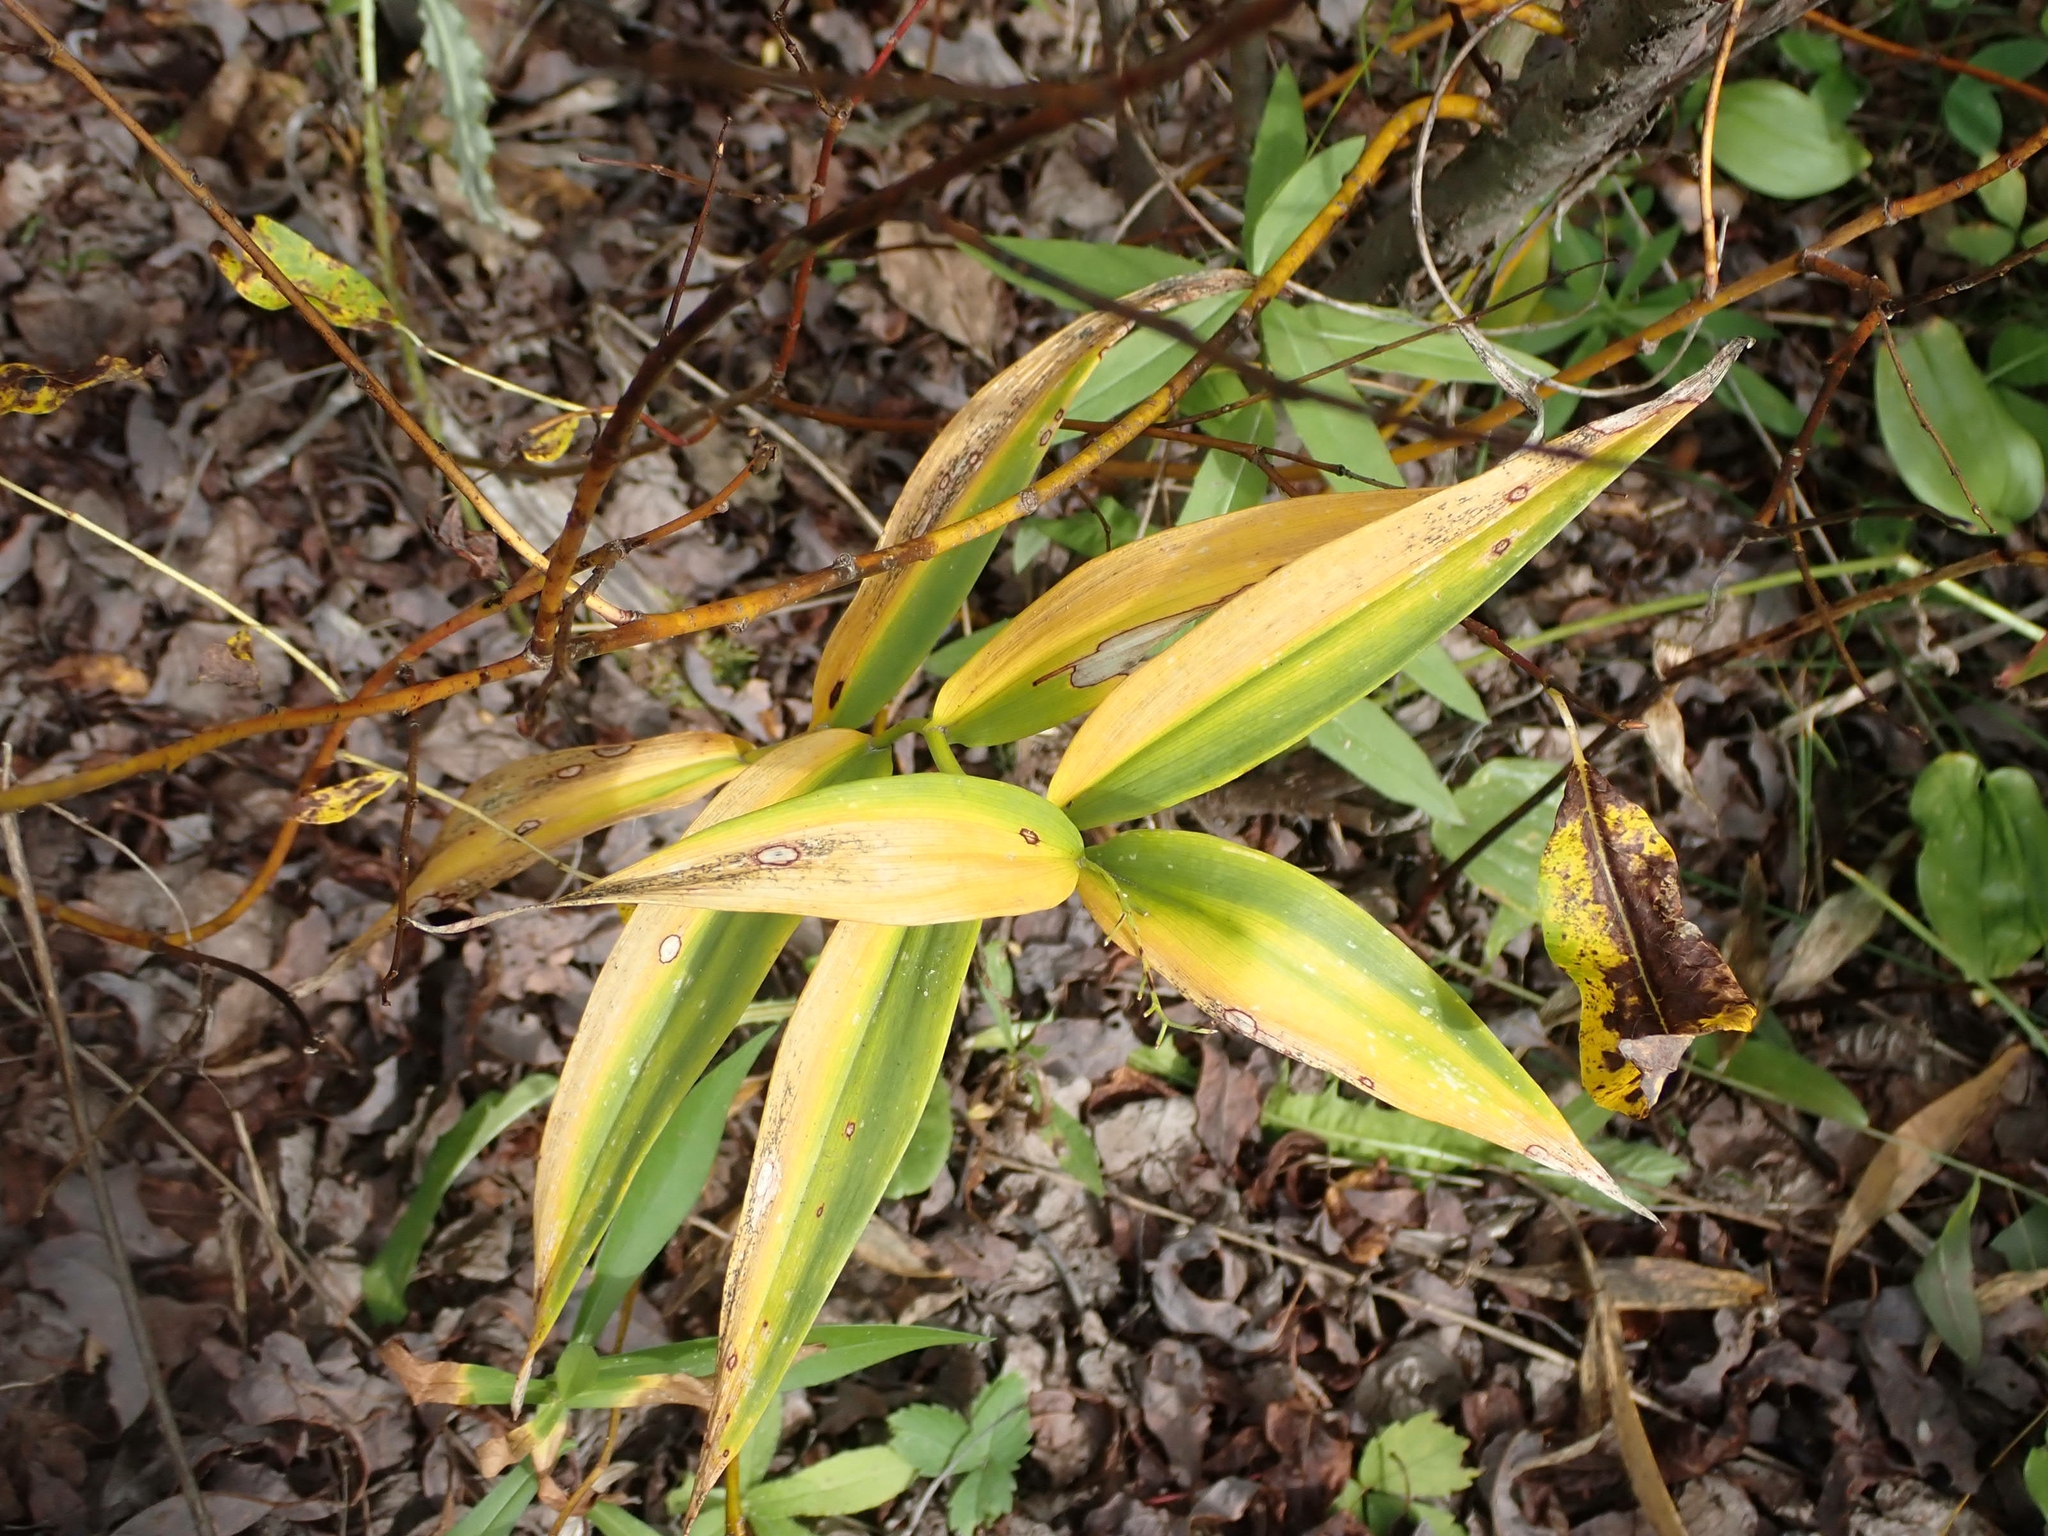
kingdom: Plantae
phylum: Tracheophyta
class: Liliopsida
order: Asparagales
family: Asparagaceae
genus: Maianthemum
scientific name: Maianthemum stellatum
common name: Little false solomon's seal
